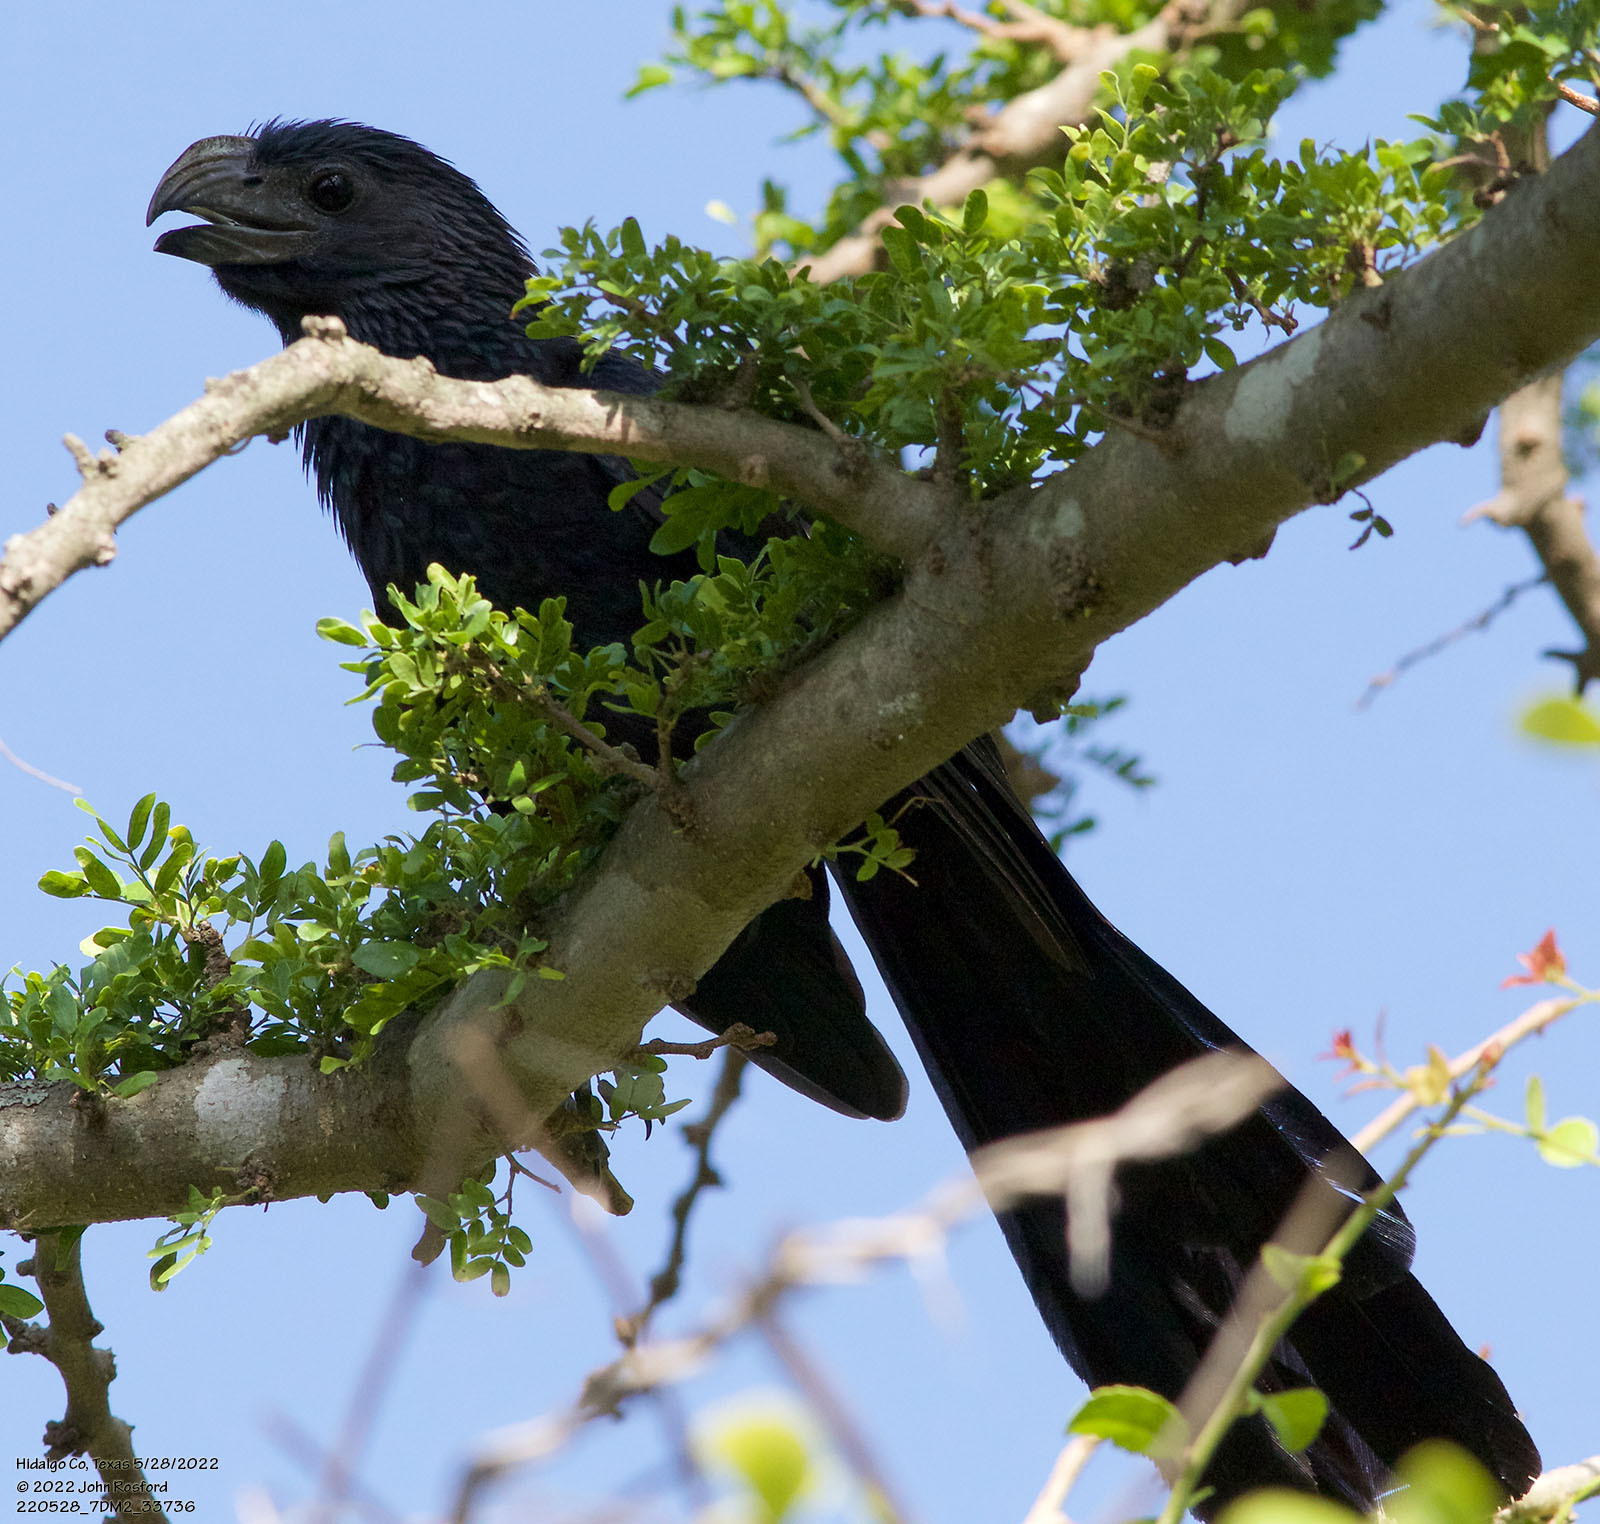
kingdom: Animalia
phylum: Chordata
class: Aves
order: Cuculiformes
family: Cuculidae
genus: Crotophaga
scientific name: Crotophaga sulcirostris
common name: Groove-billed ani
